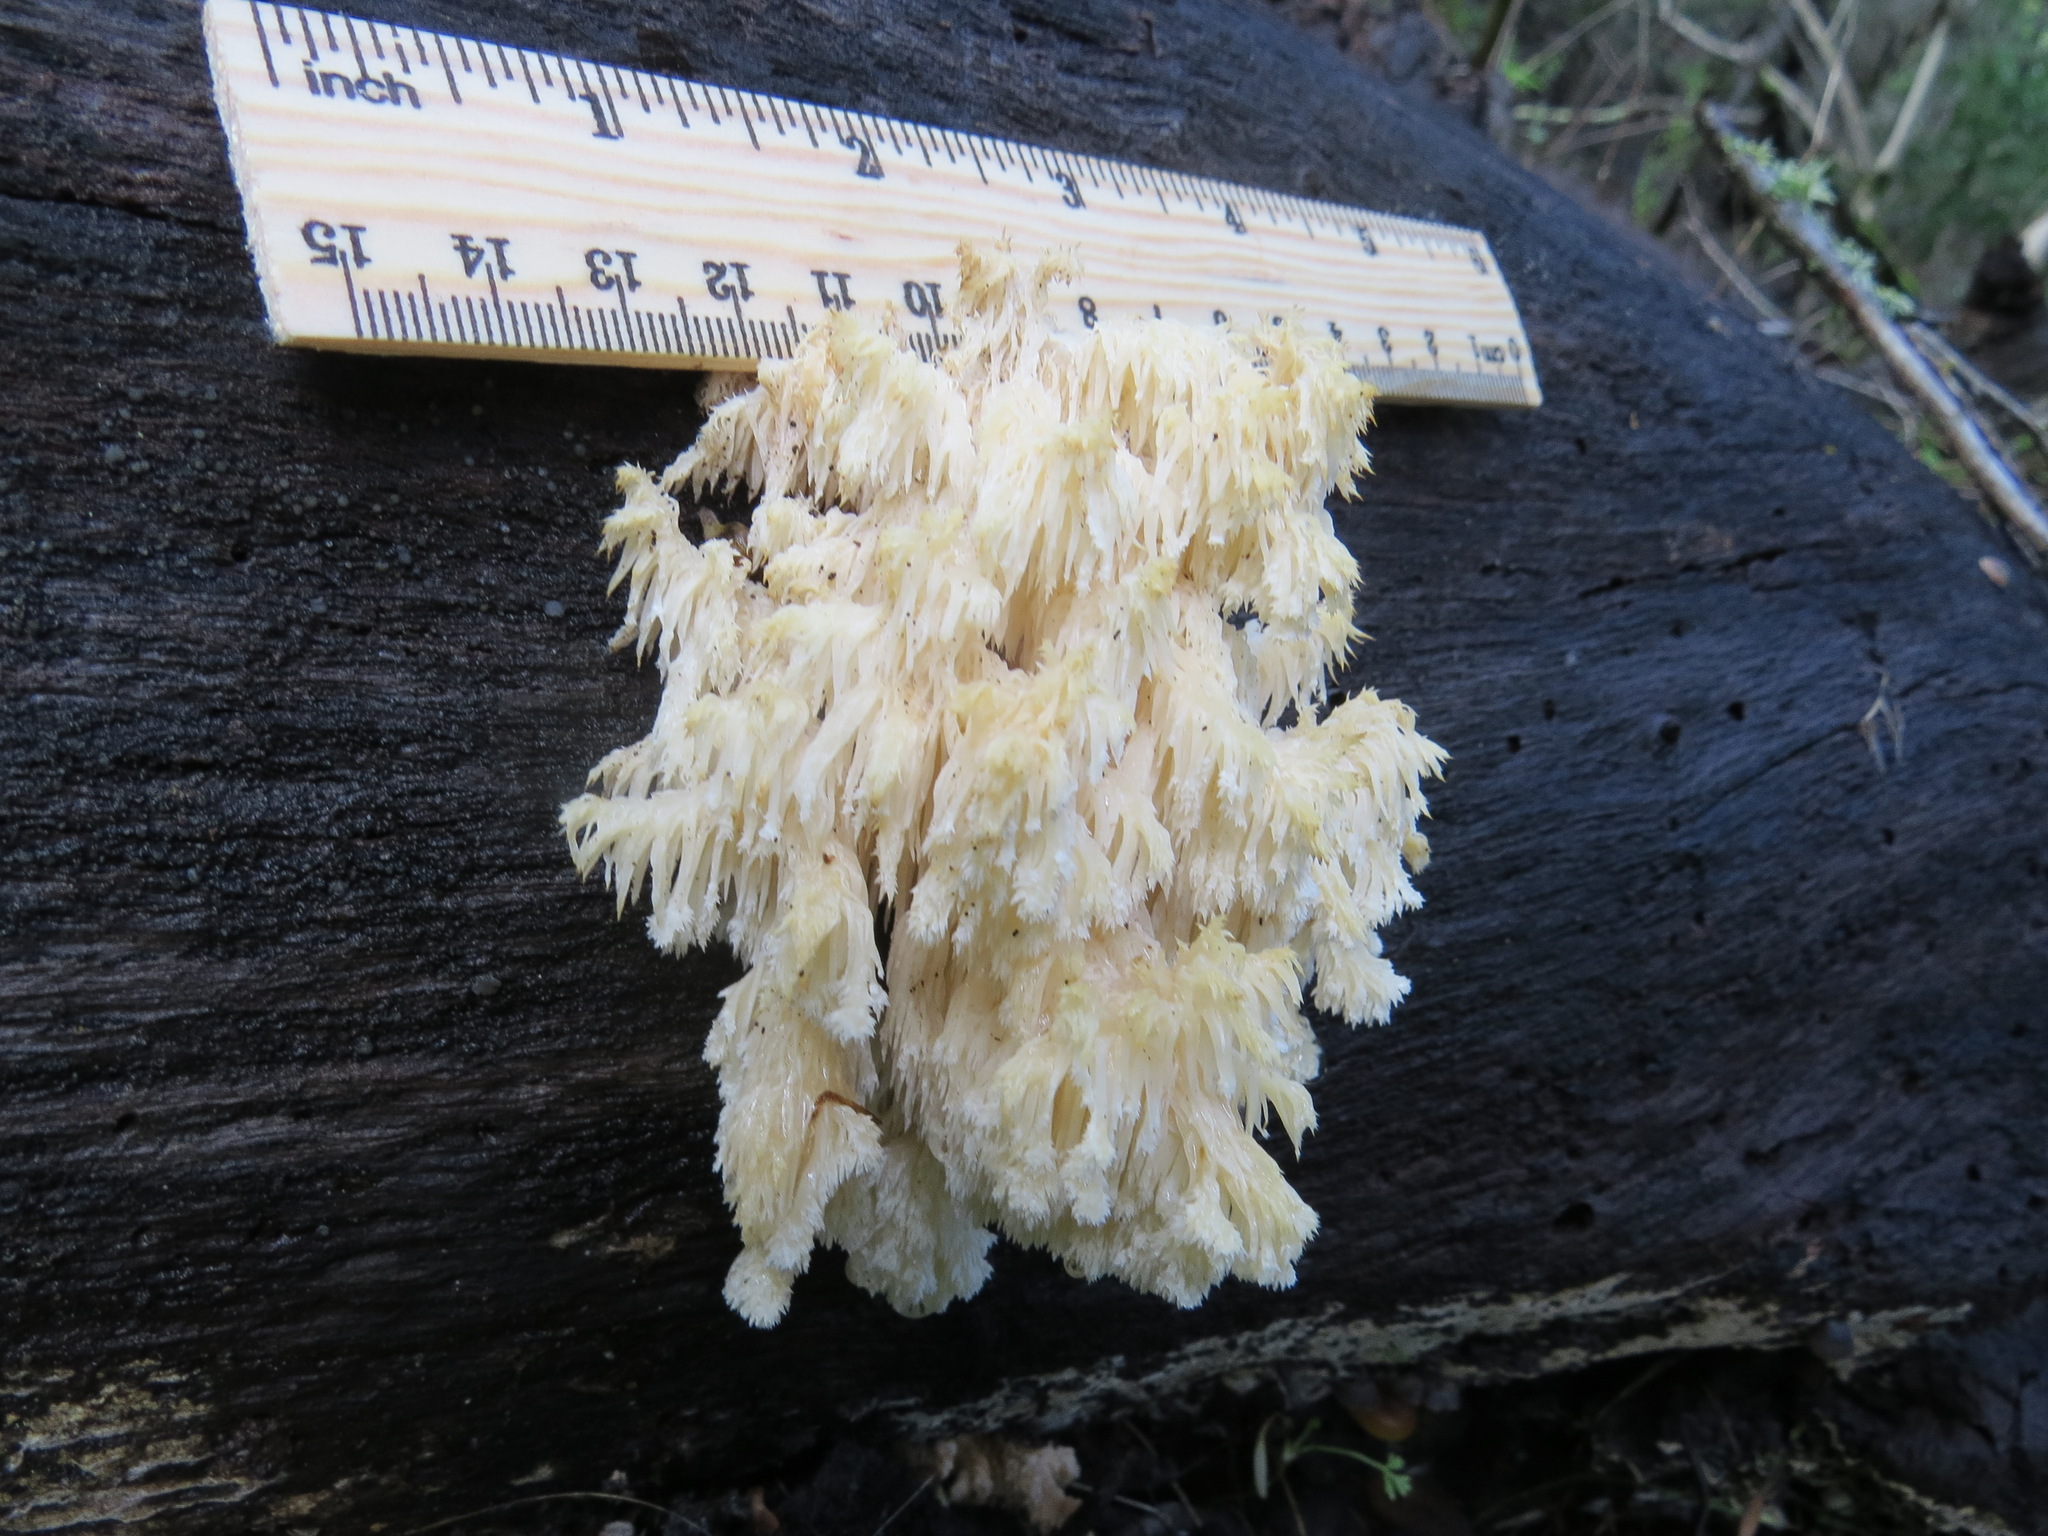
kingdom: Fungi
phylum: Basidiomycota
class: Agaricomycetes
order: Russulales
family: Hericiaceae
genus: Hericium
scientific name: Hericium coralloides
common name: Coral tooth
